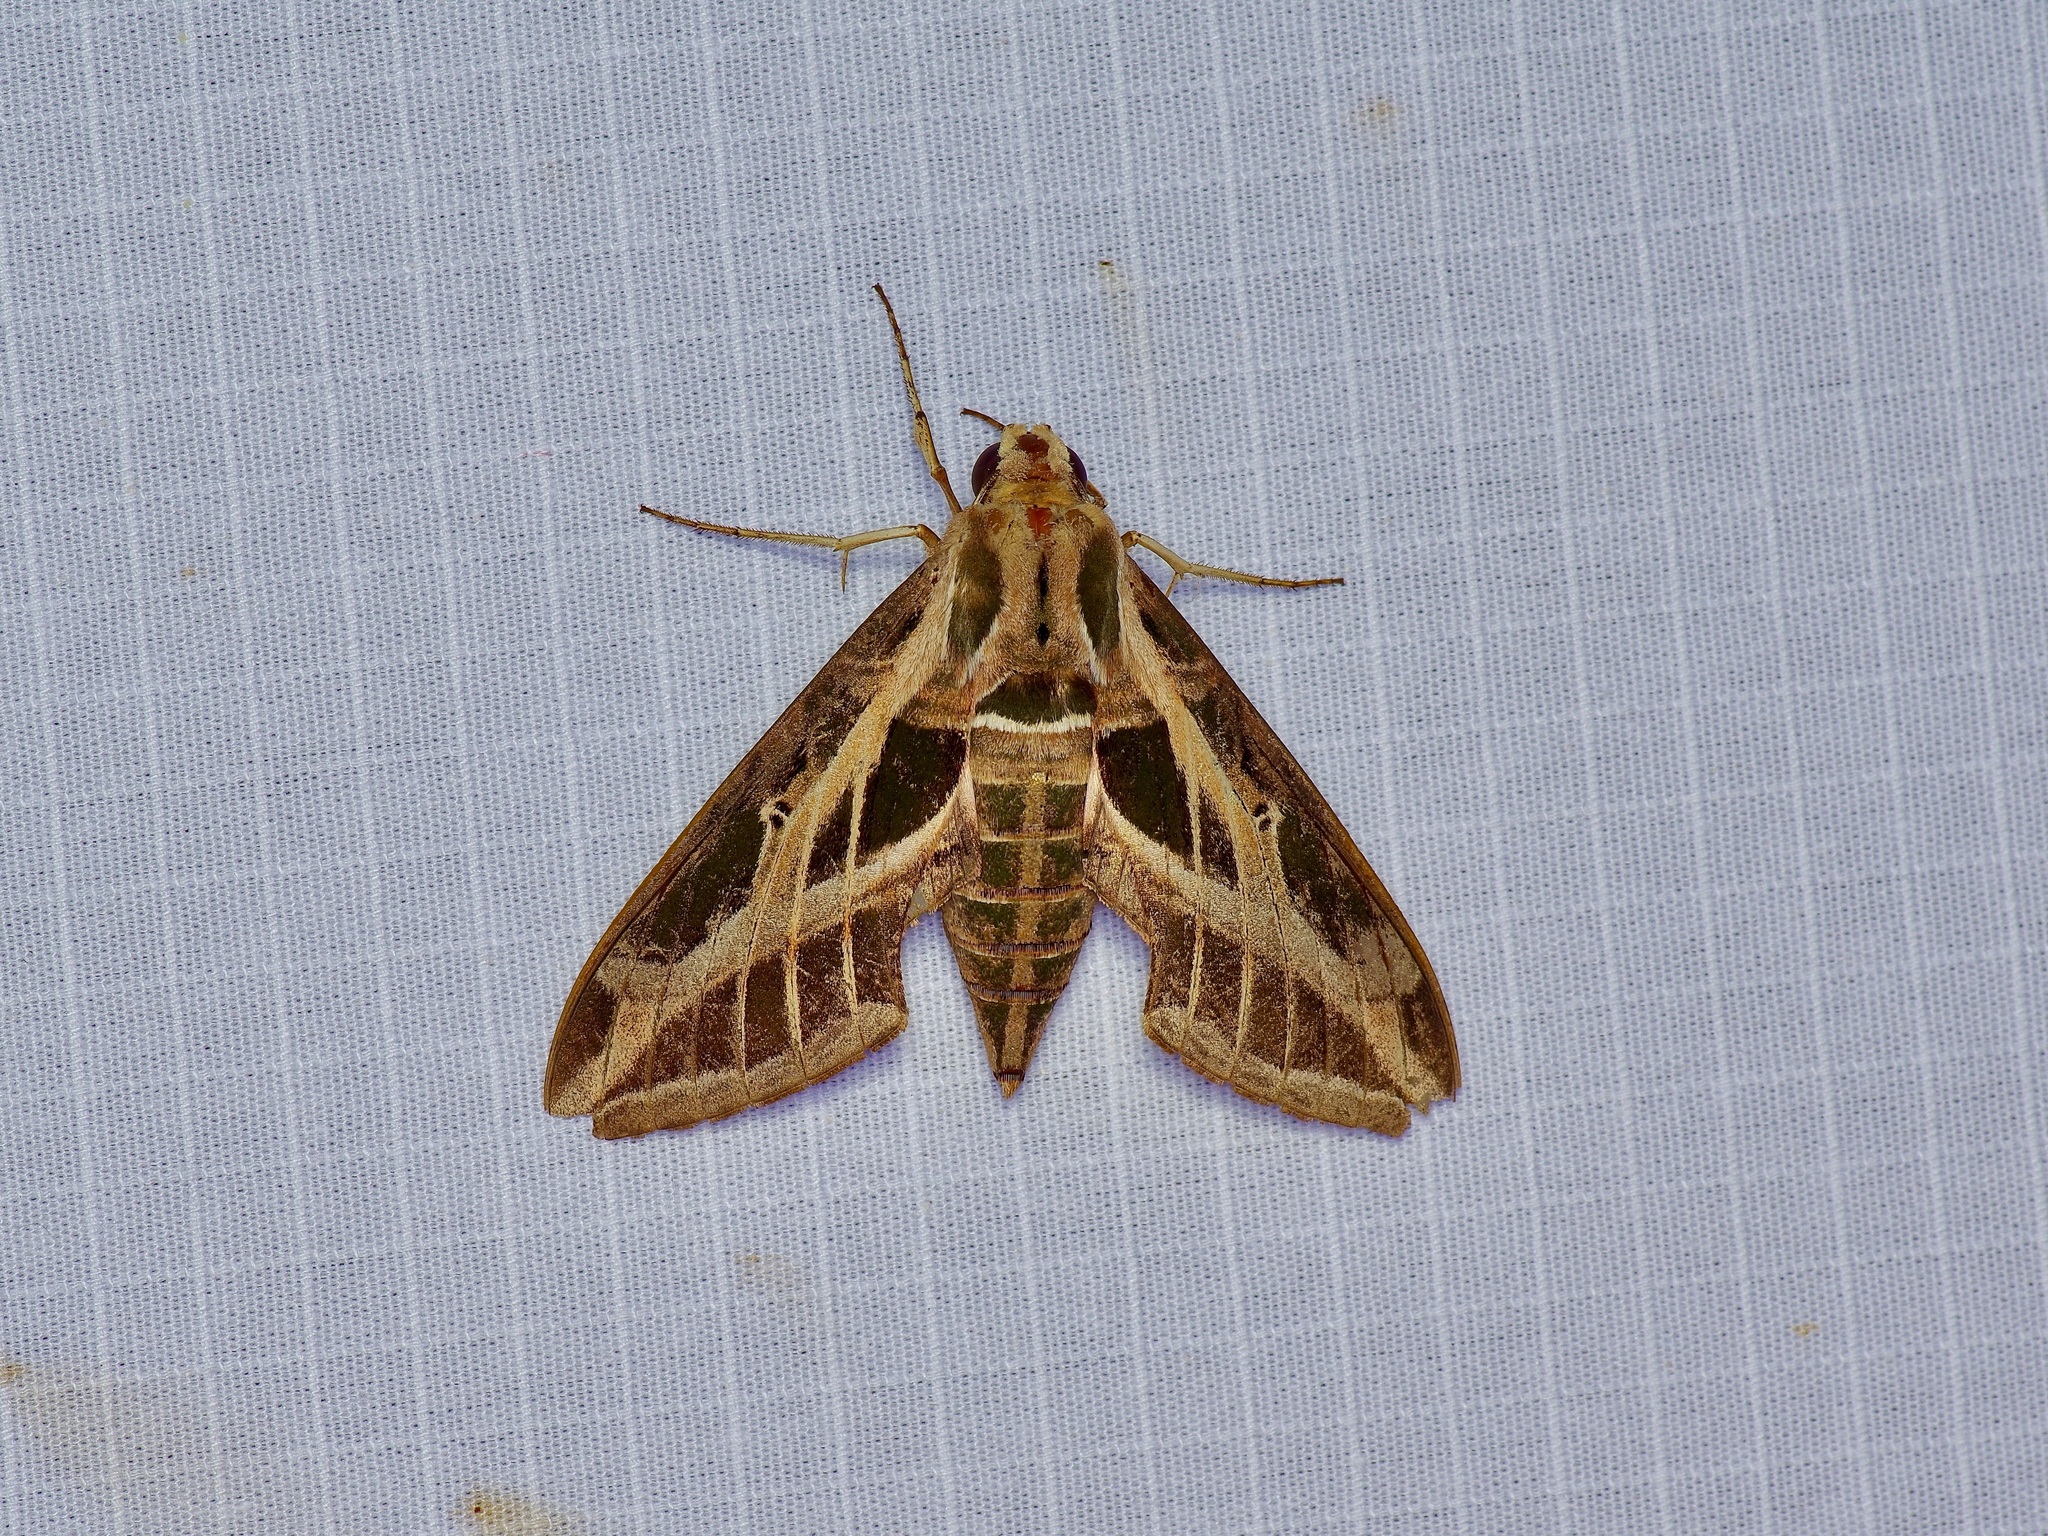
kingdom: Animalia
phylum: Arthropoda
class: Insecta
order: Lepidoptera
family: Sphingidae
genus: Eumorpha
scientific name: Eumorpha vitis
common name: Vine sphinx
